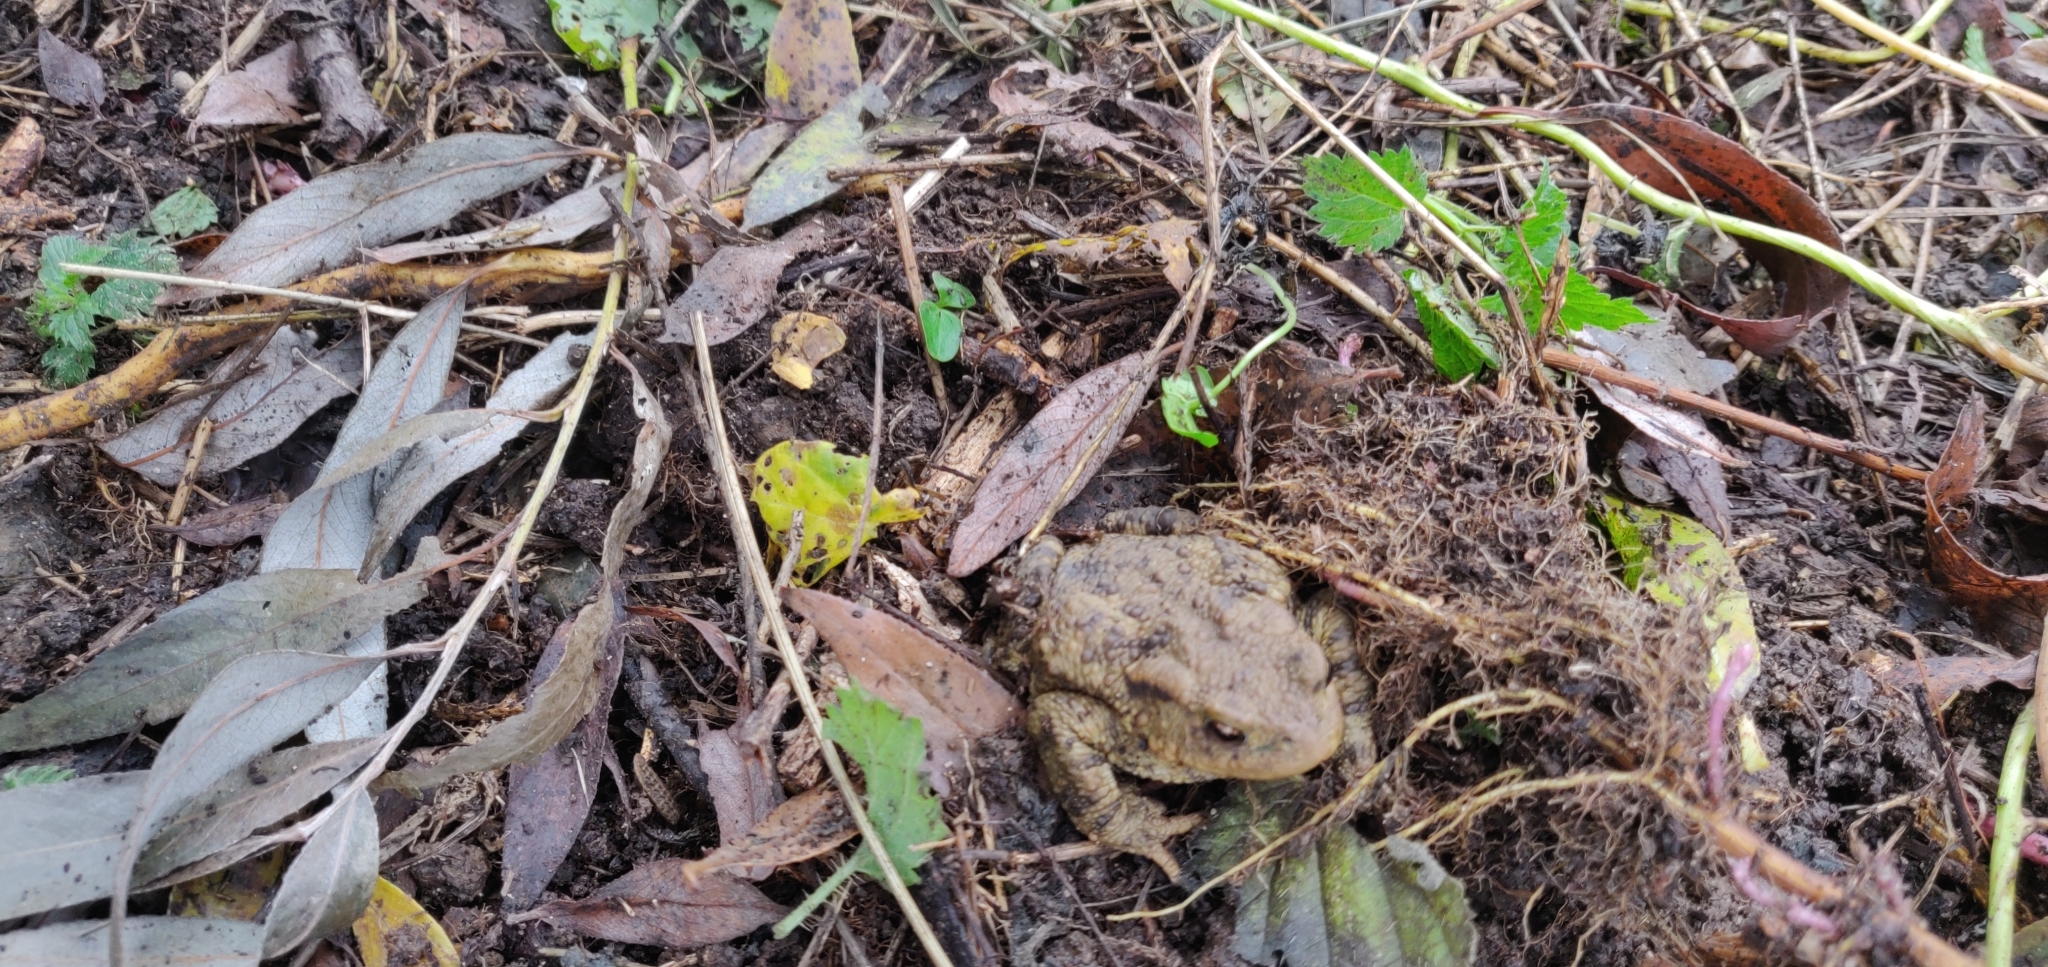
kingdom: Animalia
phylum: Chordata
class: Amphibia
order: Anura
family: Bufonidae
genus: Bufo
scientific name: Bufo bufo
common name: Common toad
